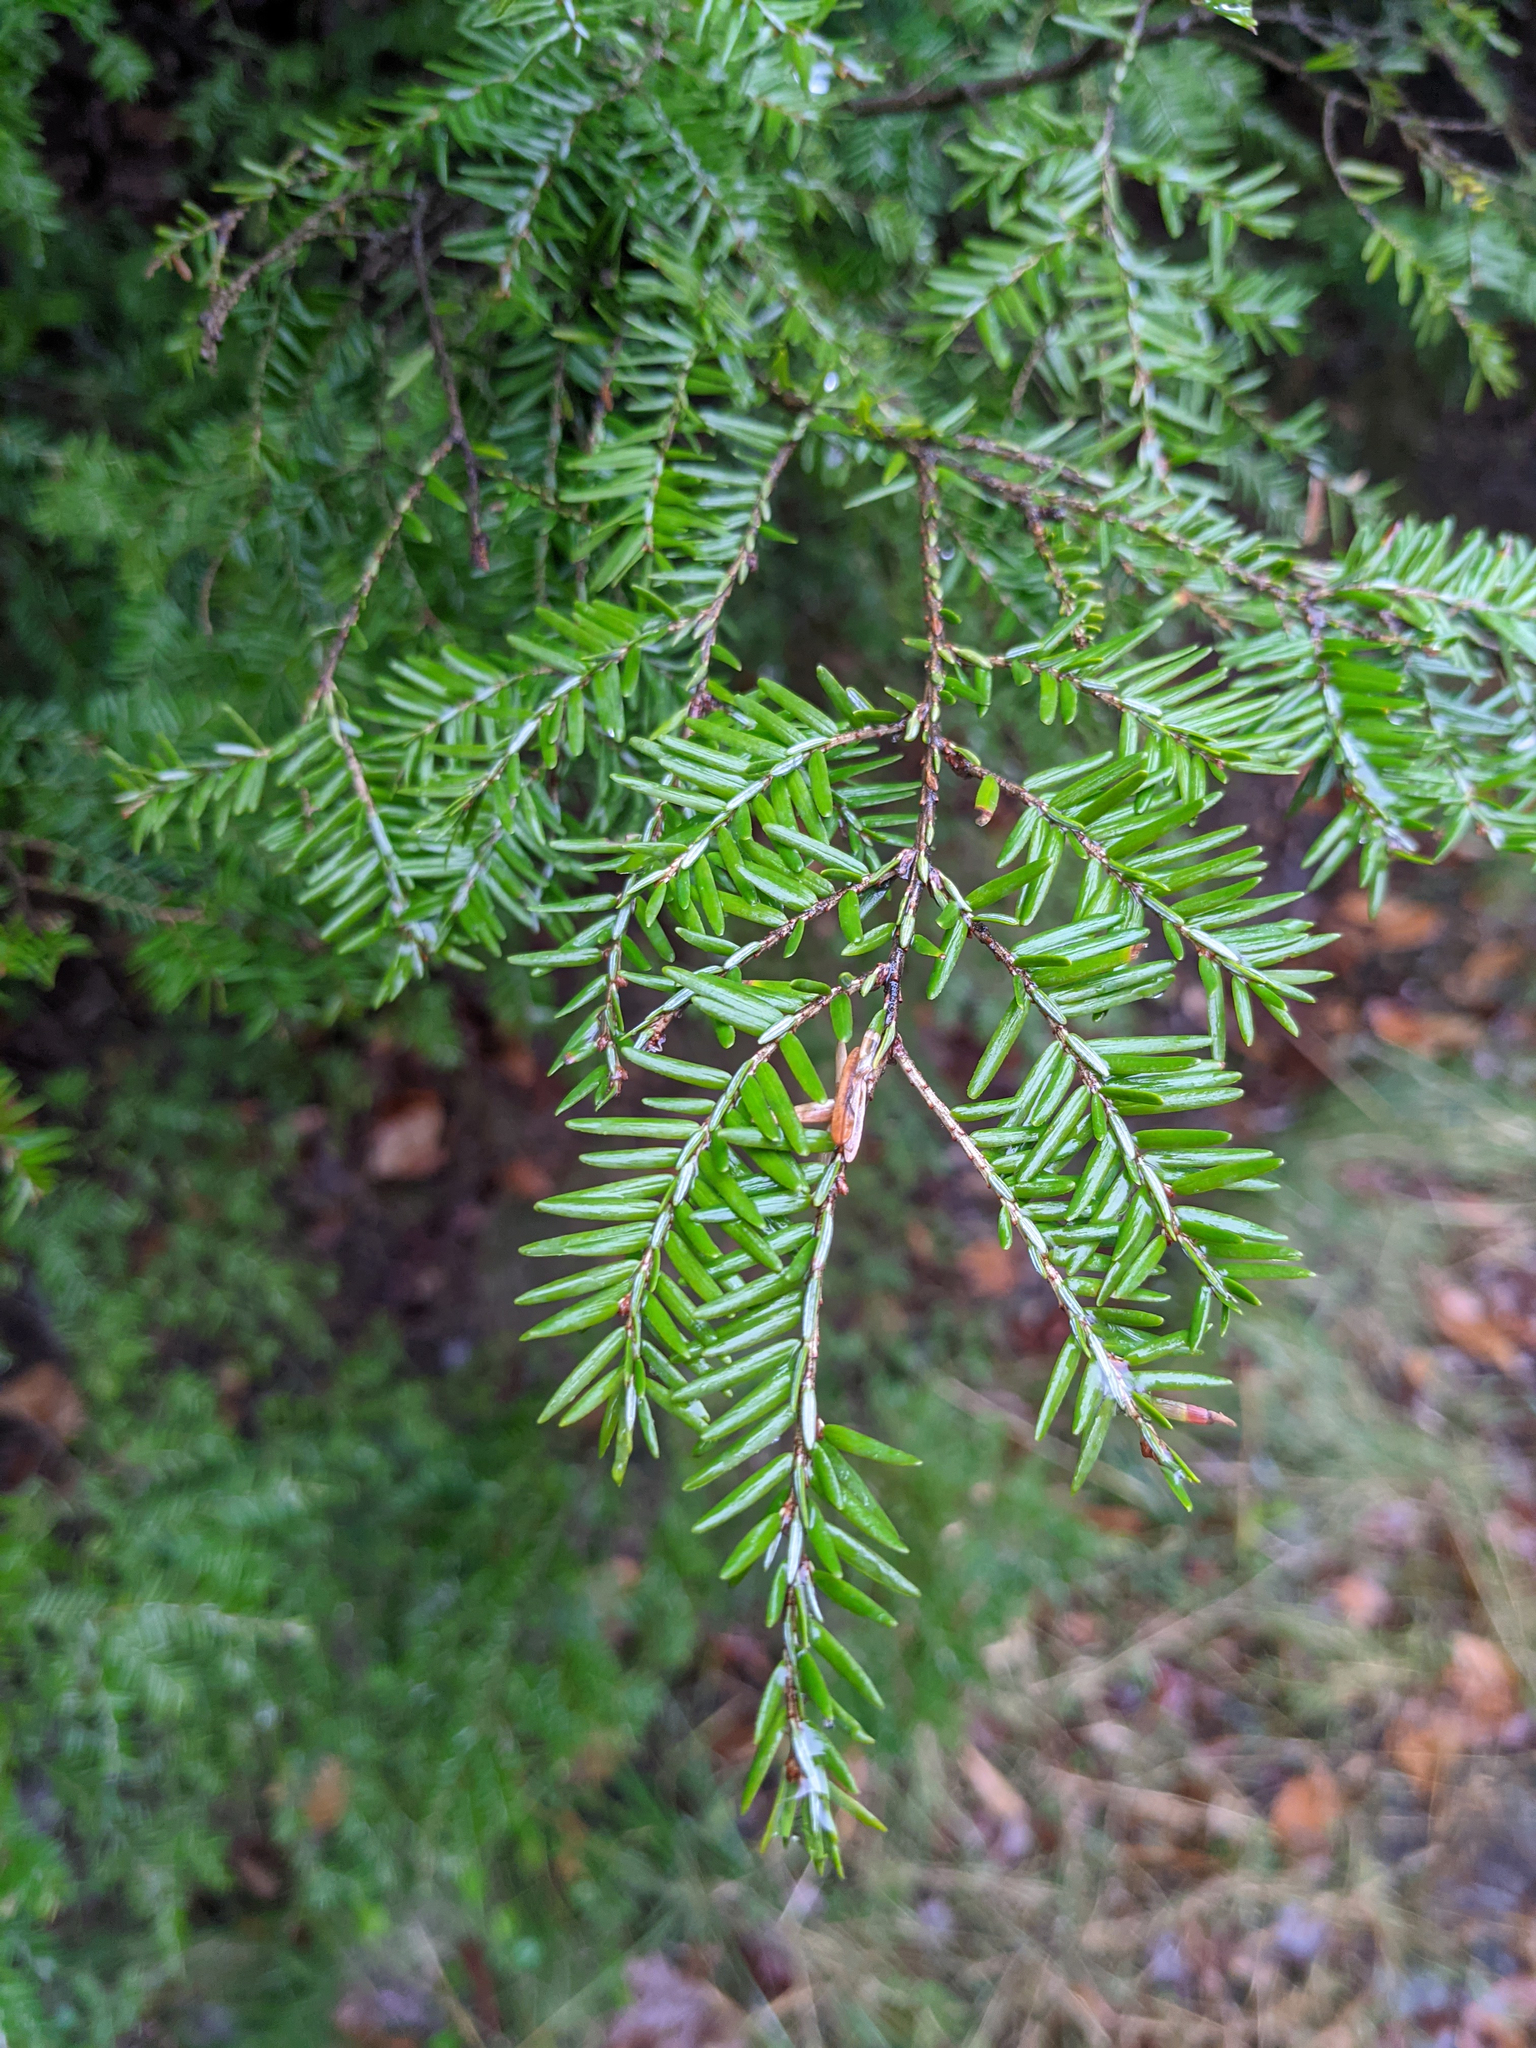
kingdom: Plantae
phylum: Tracheophyta
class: Pinopsida
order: Pinales
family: Pinaceae
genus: Tsuga
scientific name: Tsuga canadensis
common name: Eastern hemlock
